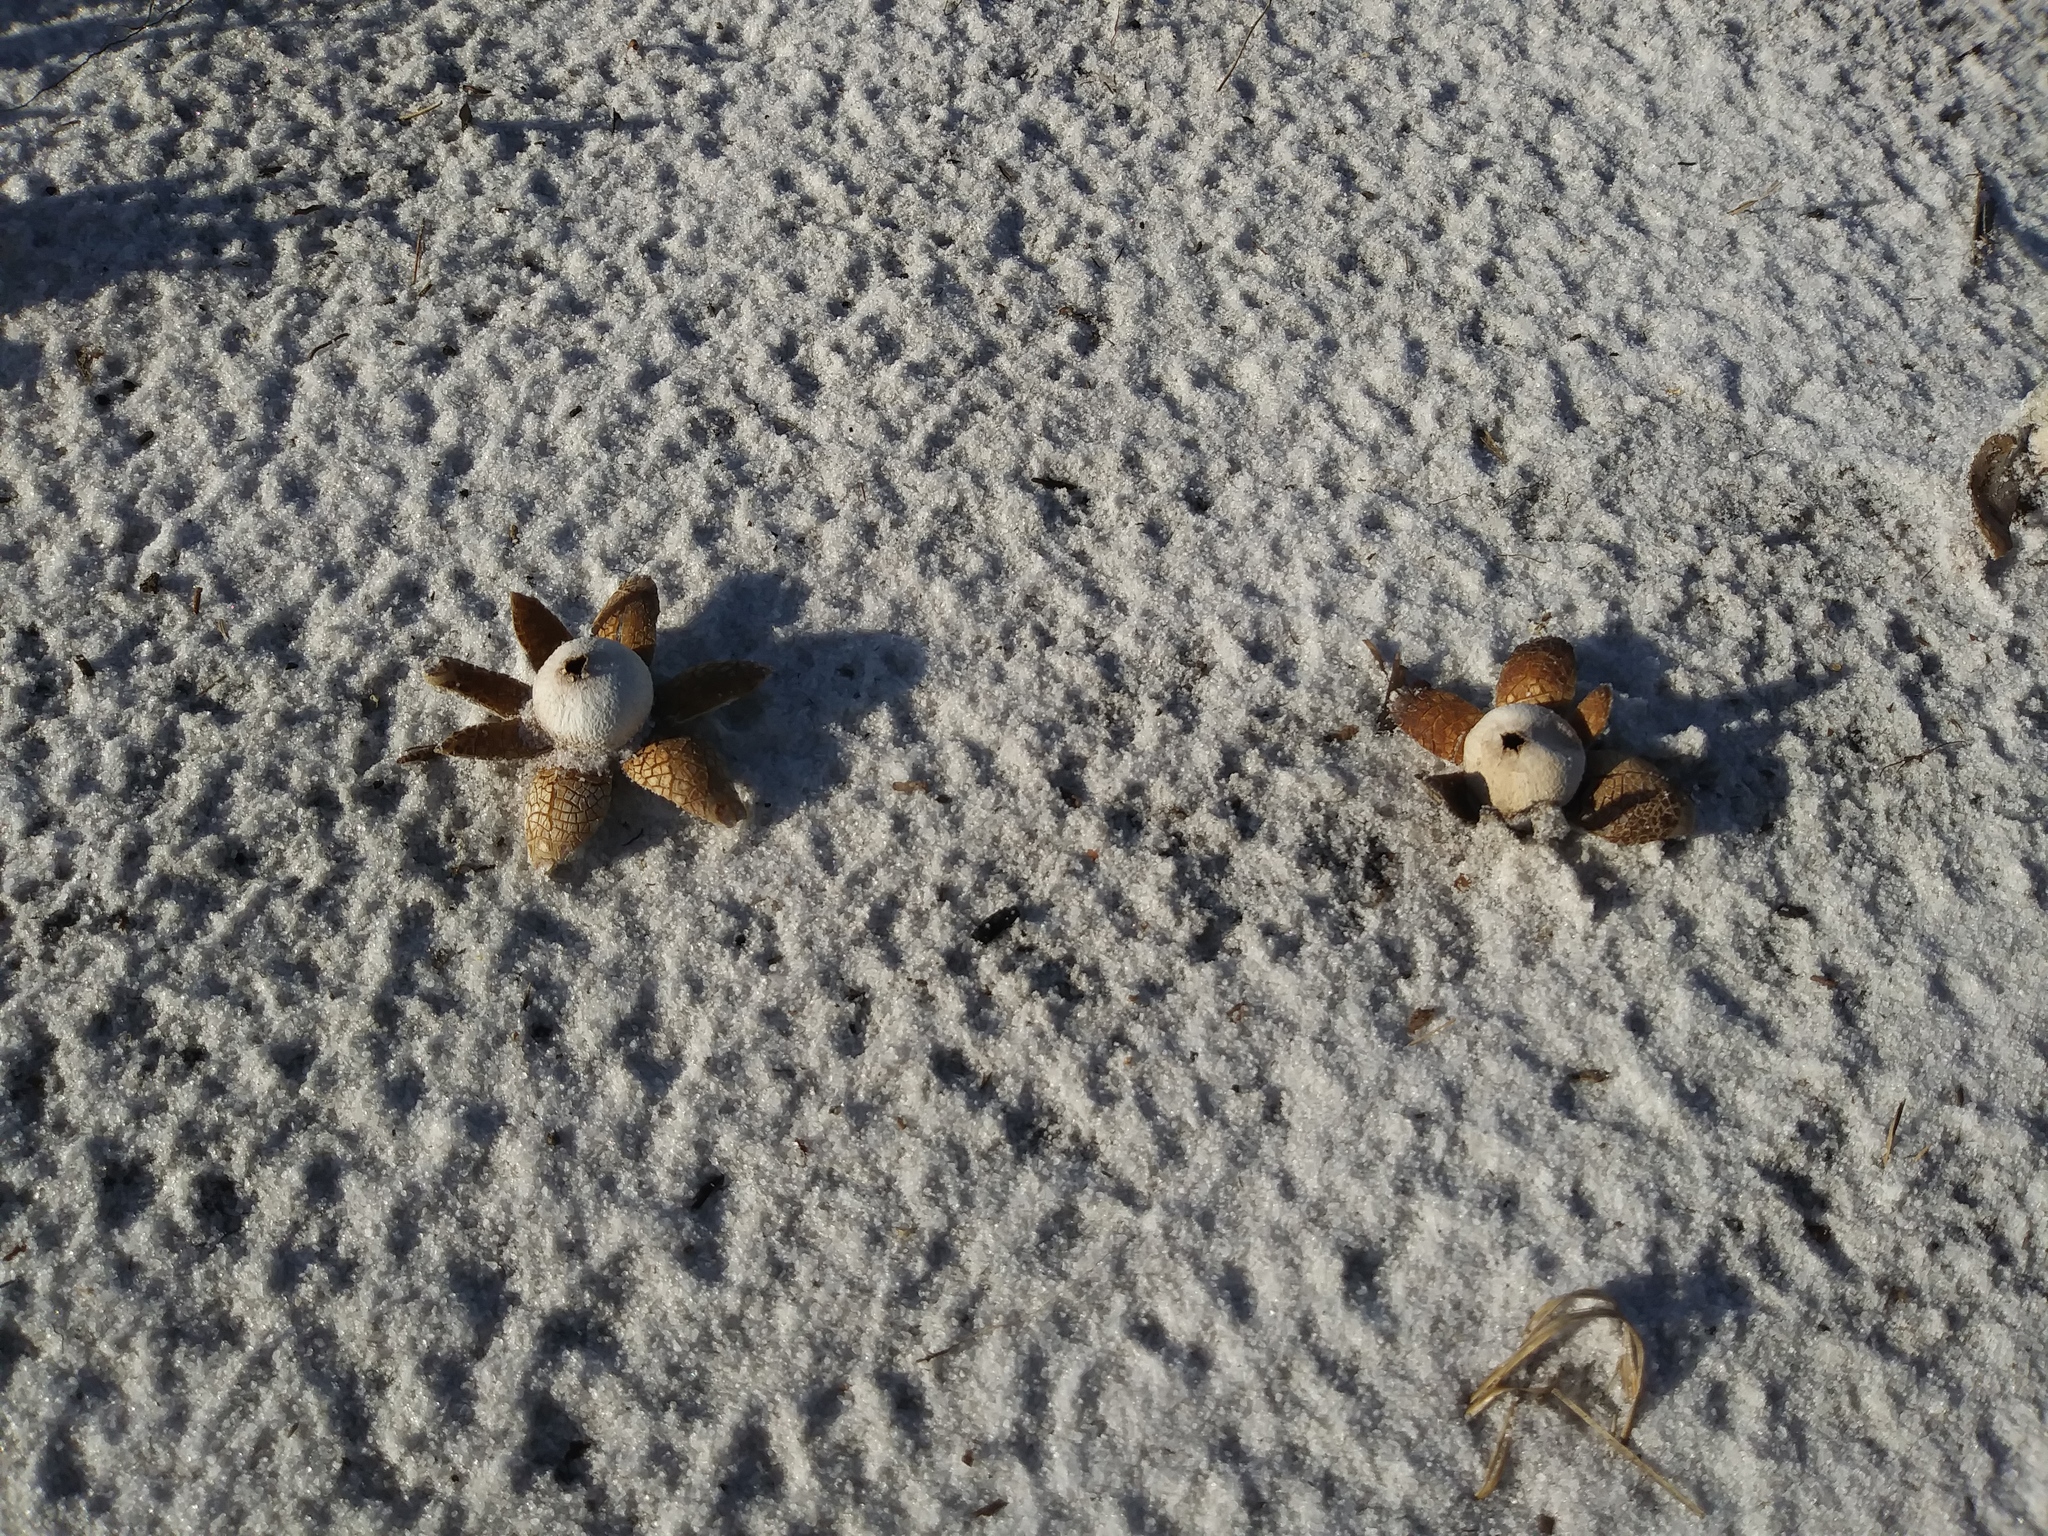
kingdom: Fungi
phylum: Basidiomycota
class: Agaricomycetes
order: Boletales
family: Diplocystidiaceae
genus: Astraeus
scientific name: Astraeus hygrometricus
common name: Barometer earthstar
